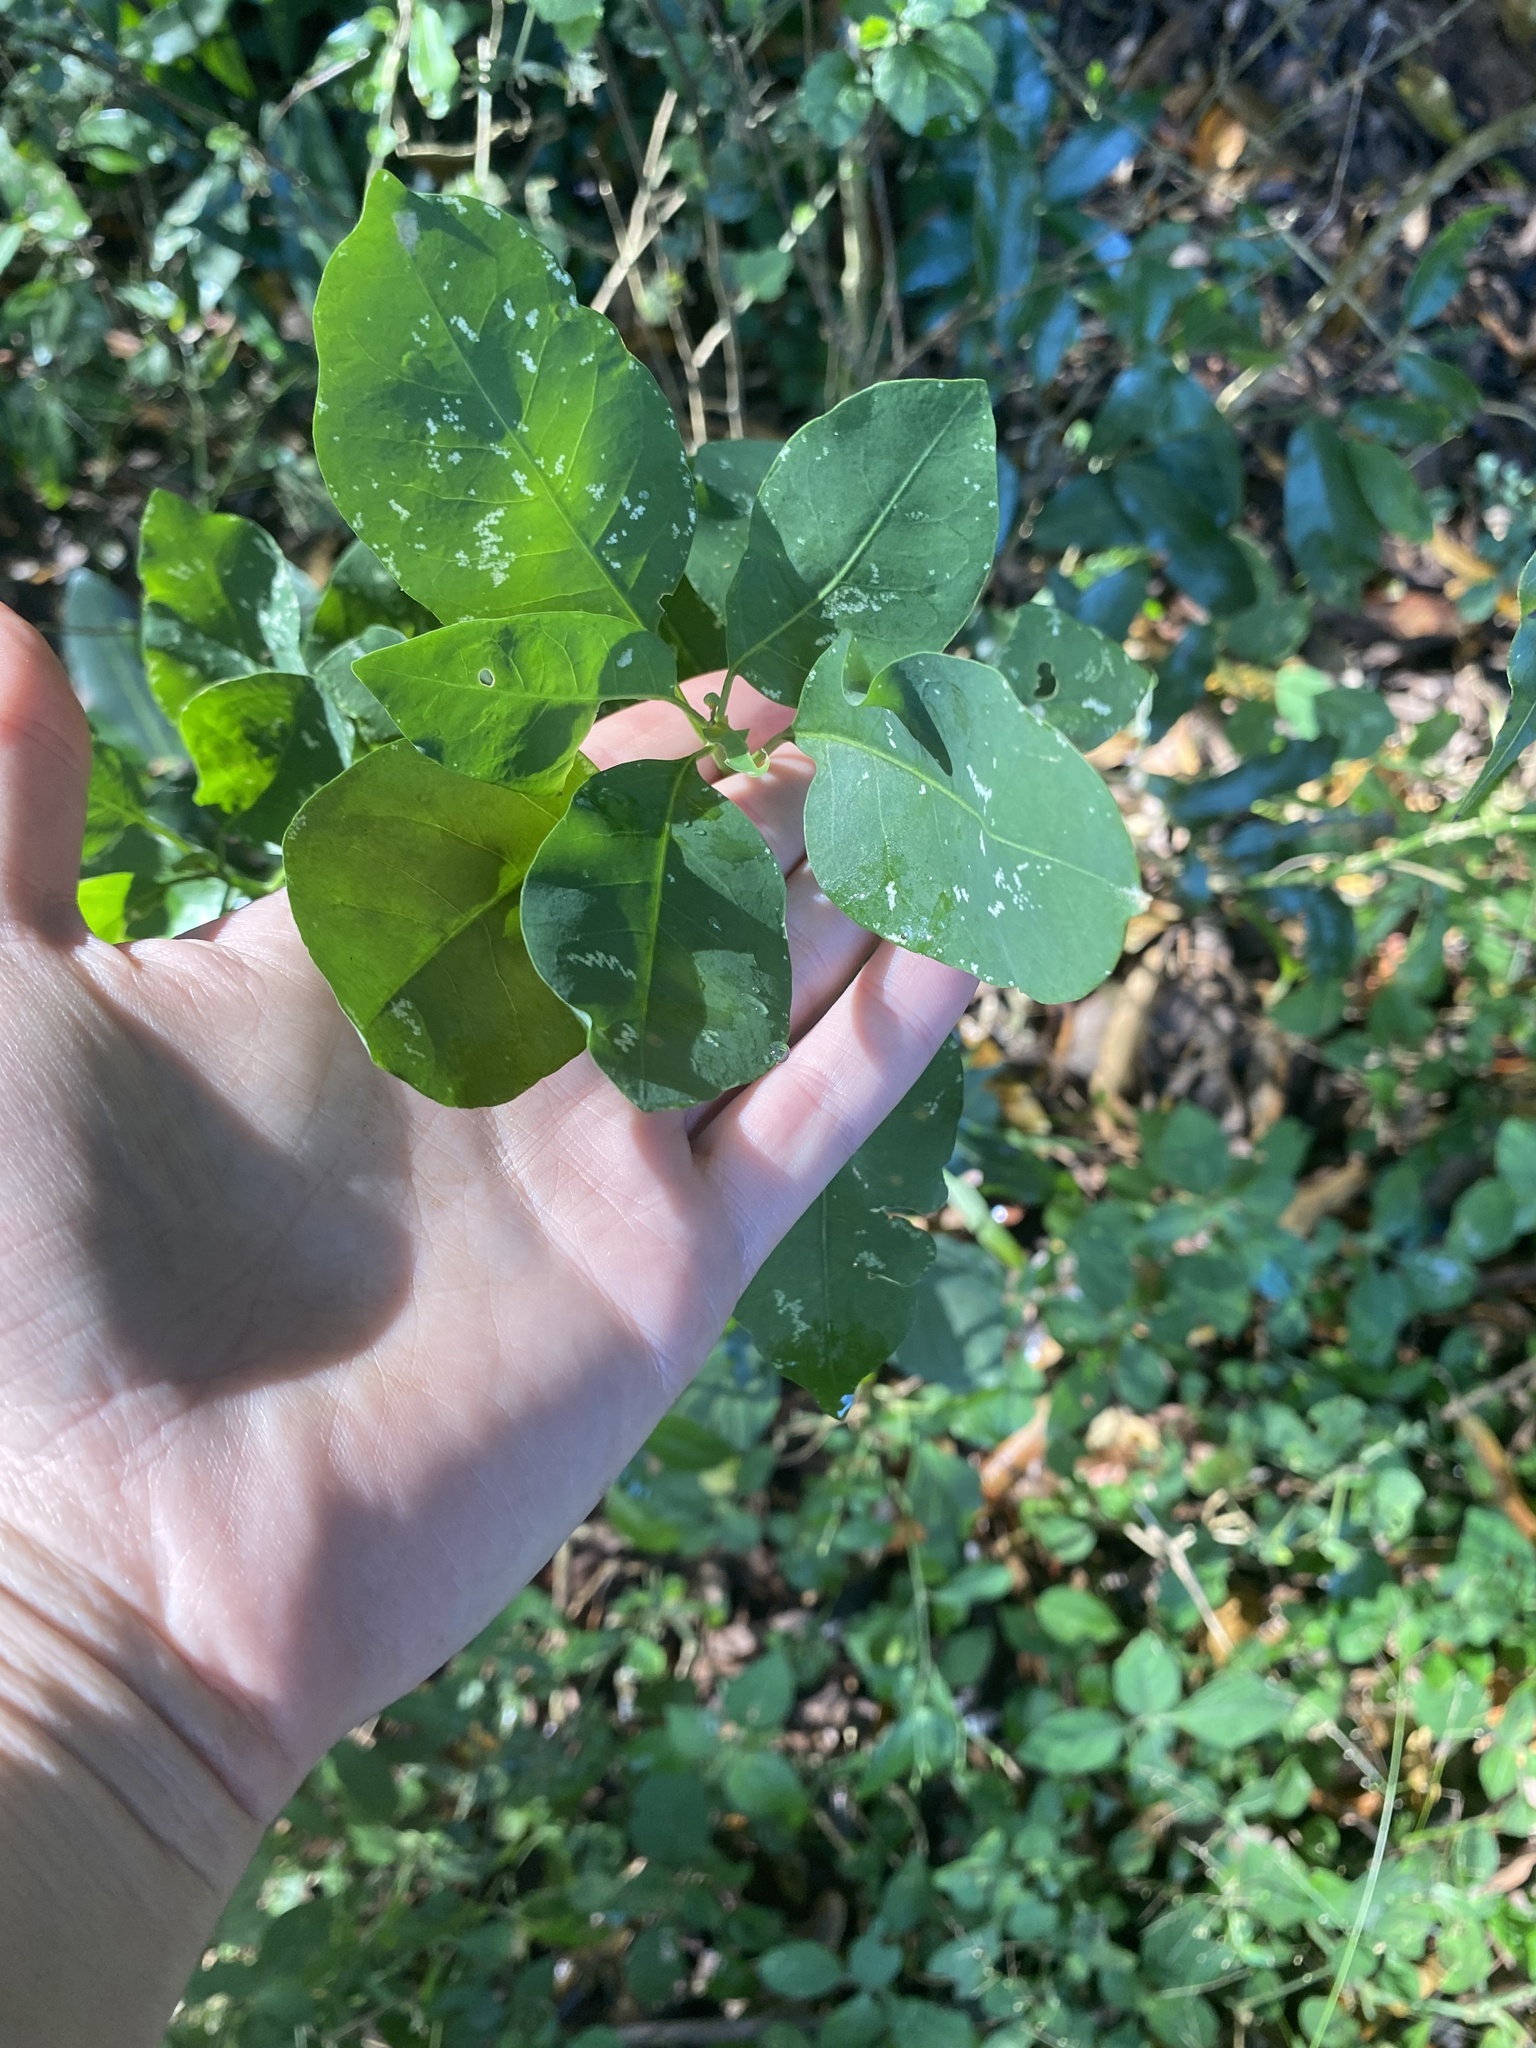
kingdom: Plantae
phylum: Tracheophyta
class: Magnoliopsida
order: Malpighiales
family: Peraceae
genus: Clutia
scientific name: Clutia pulchella
